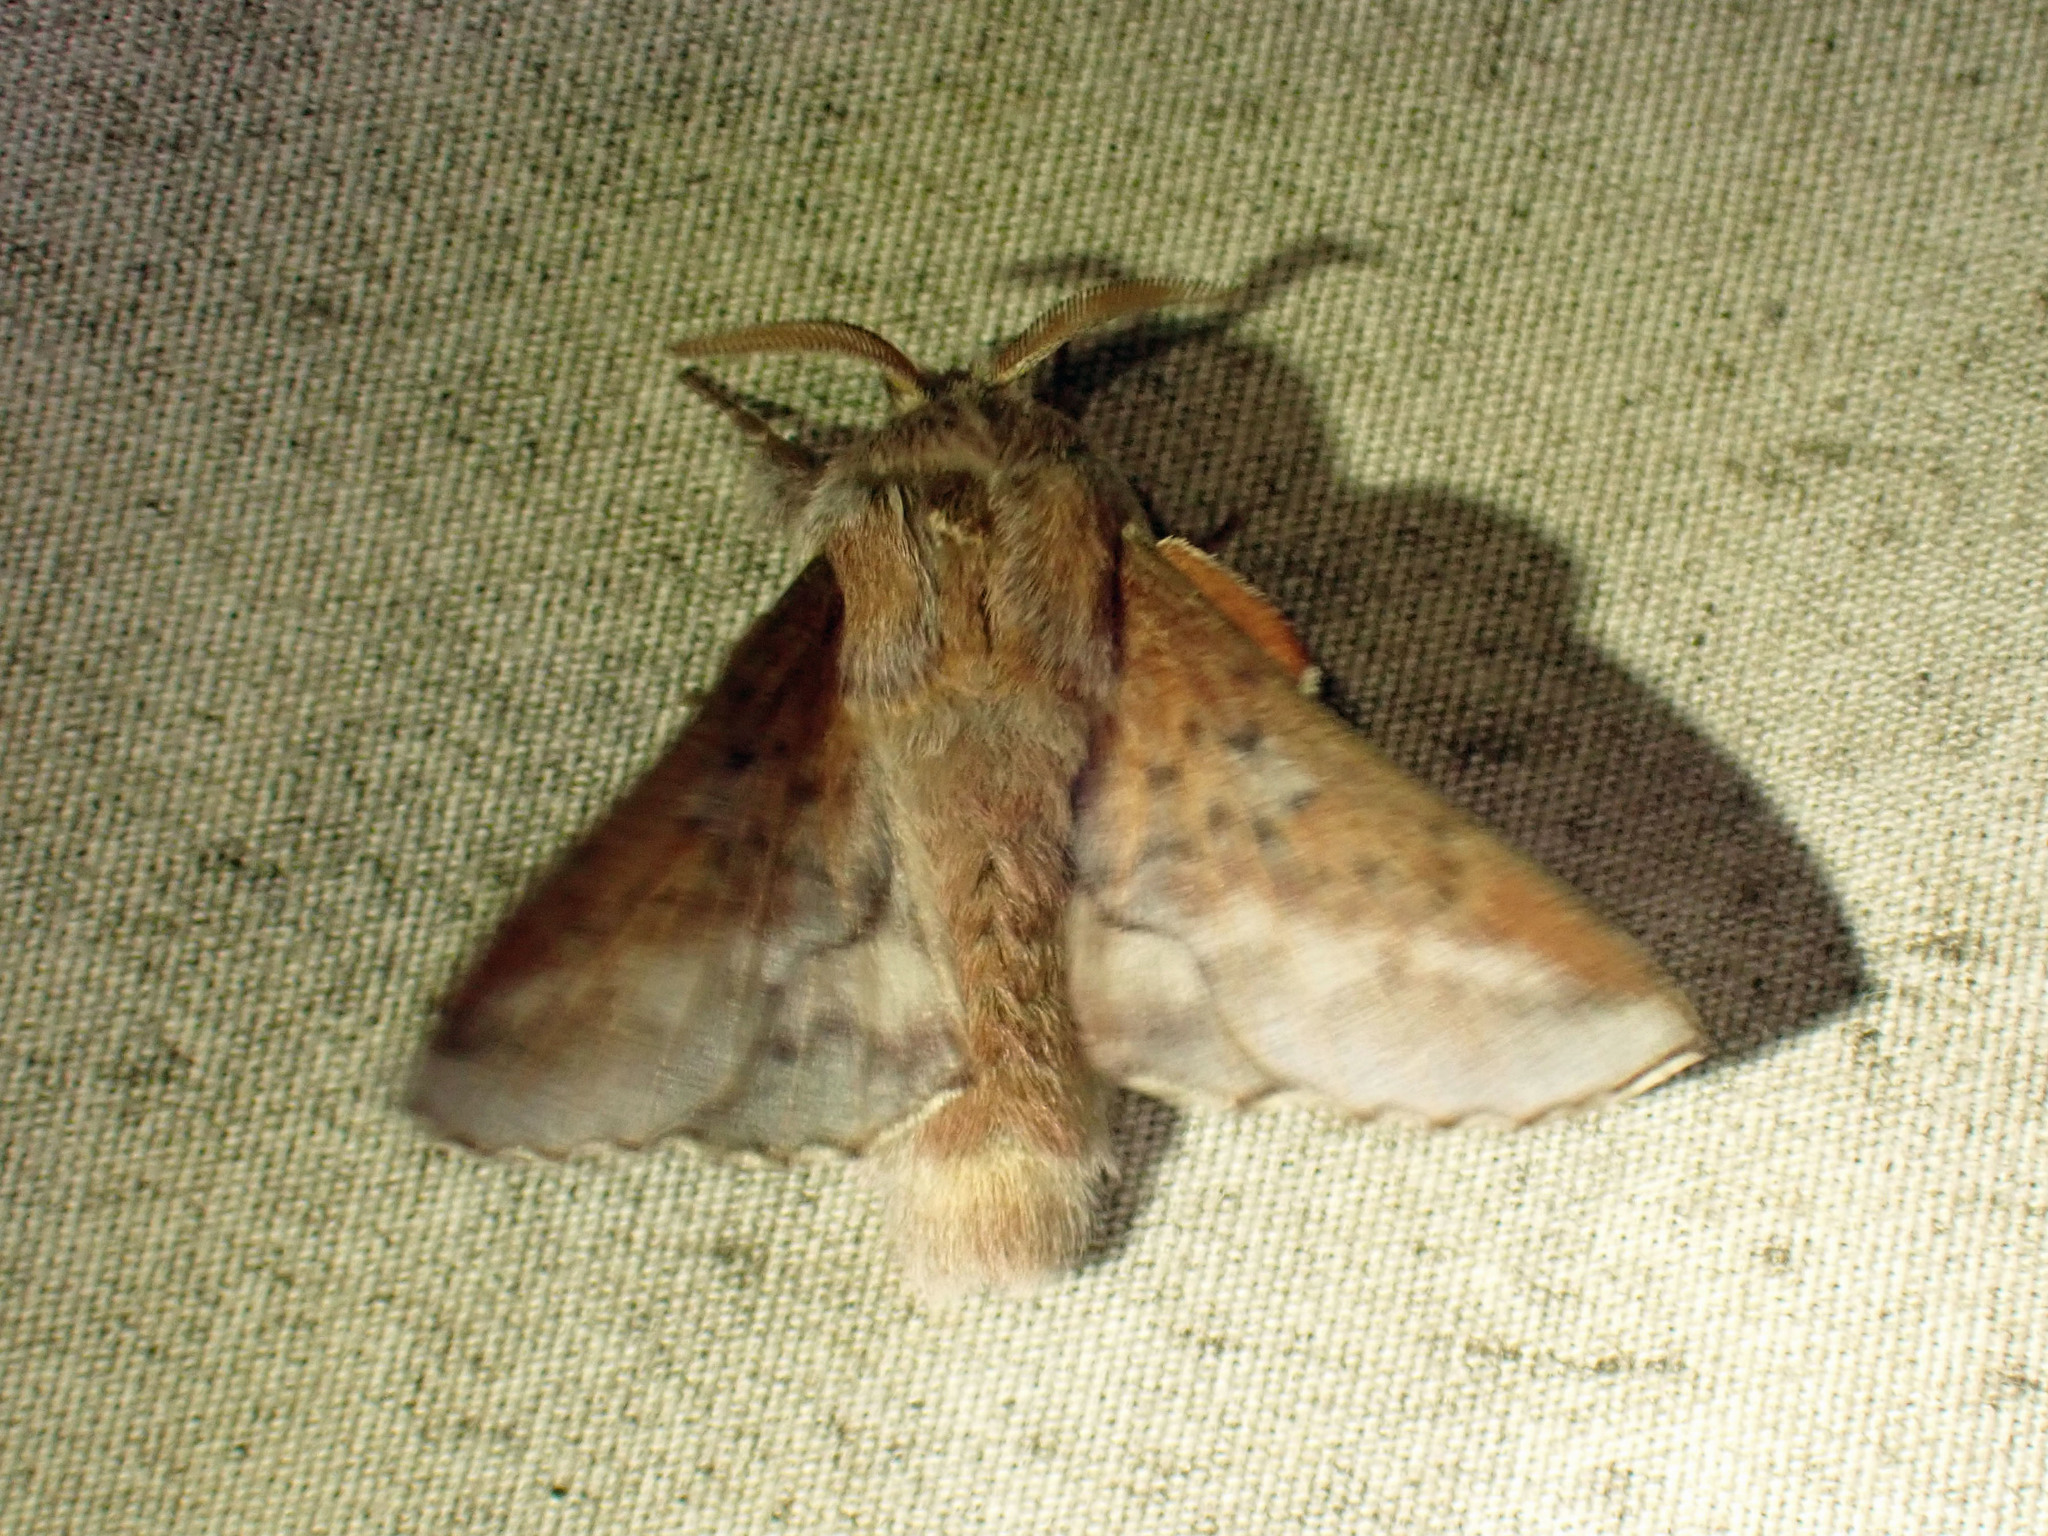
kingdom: Animalia
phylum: Arthropoda
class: Insecta
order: Lepidoptera
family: Lasiocampidae
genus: Phyllodesma
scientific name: Phyllodesma americana
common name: American lappet moth
